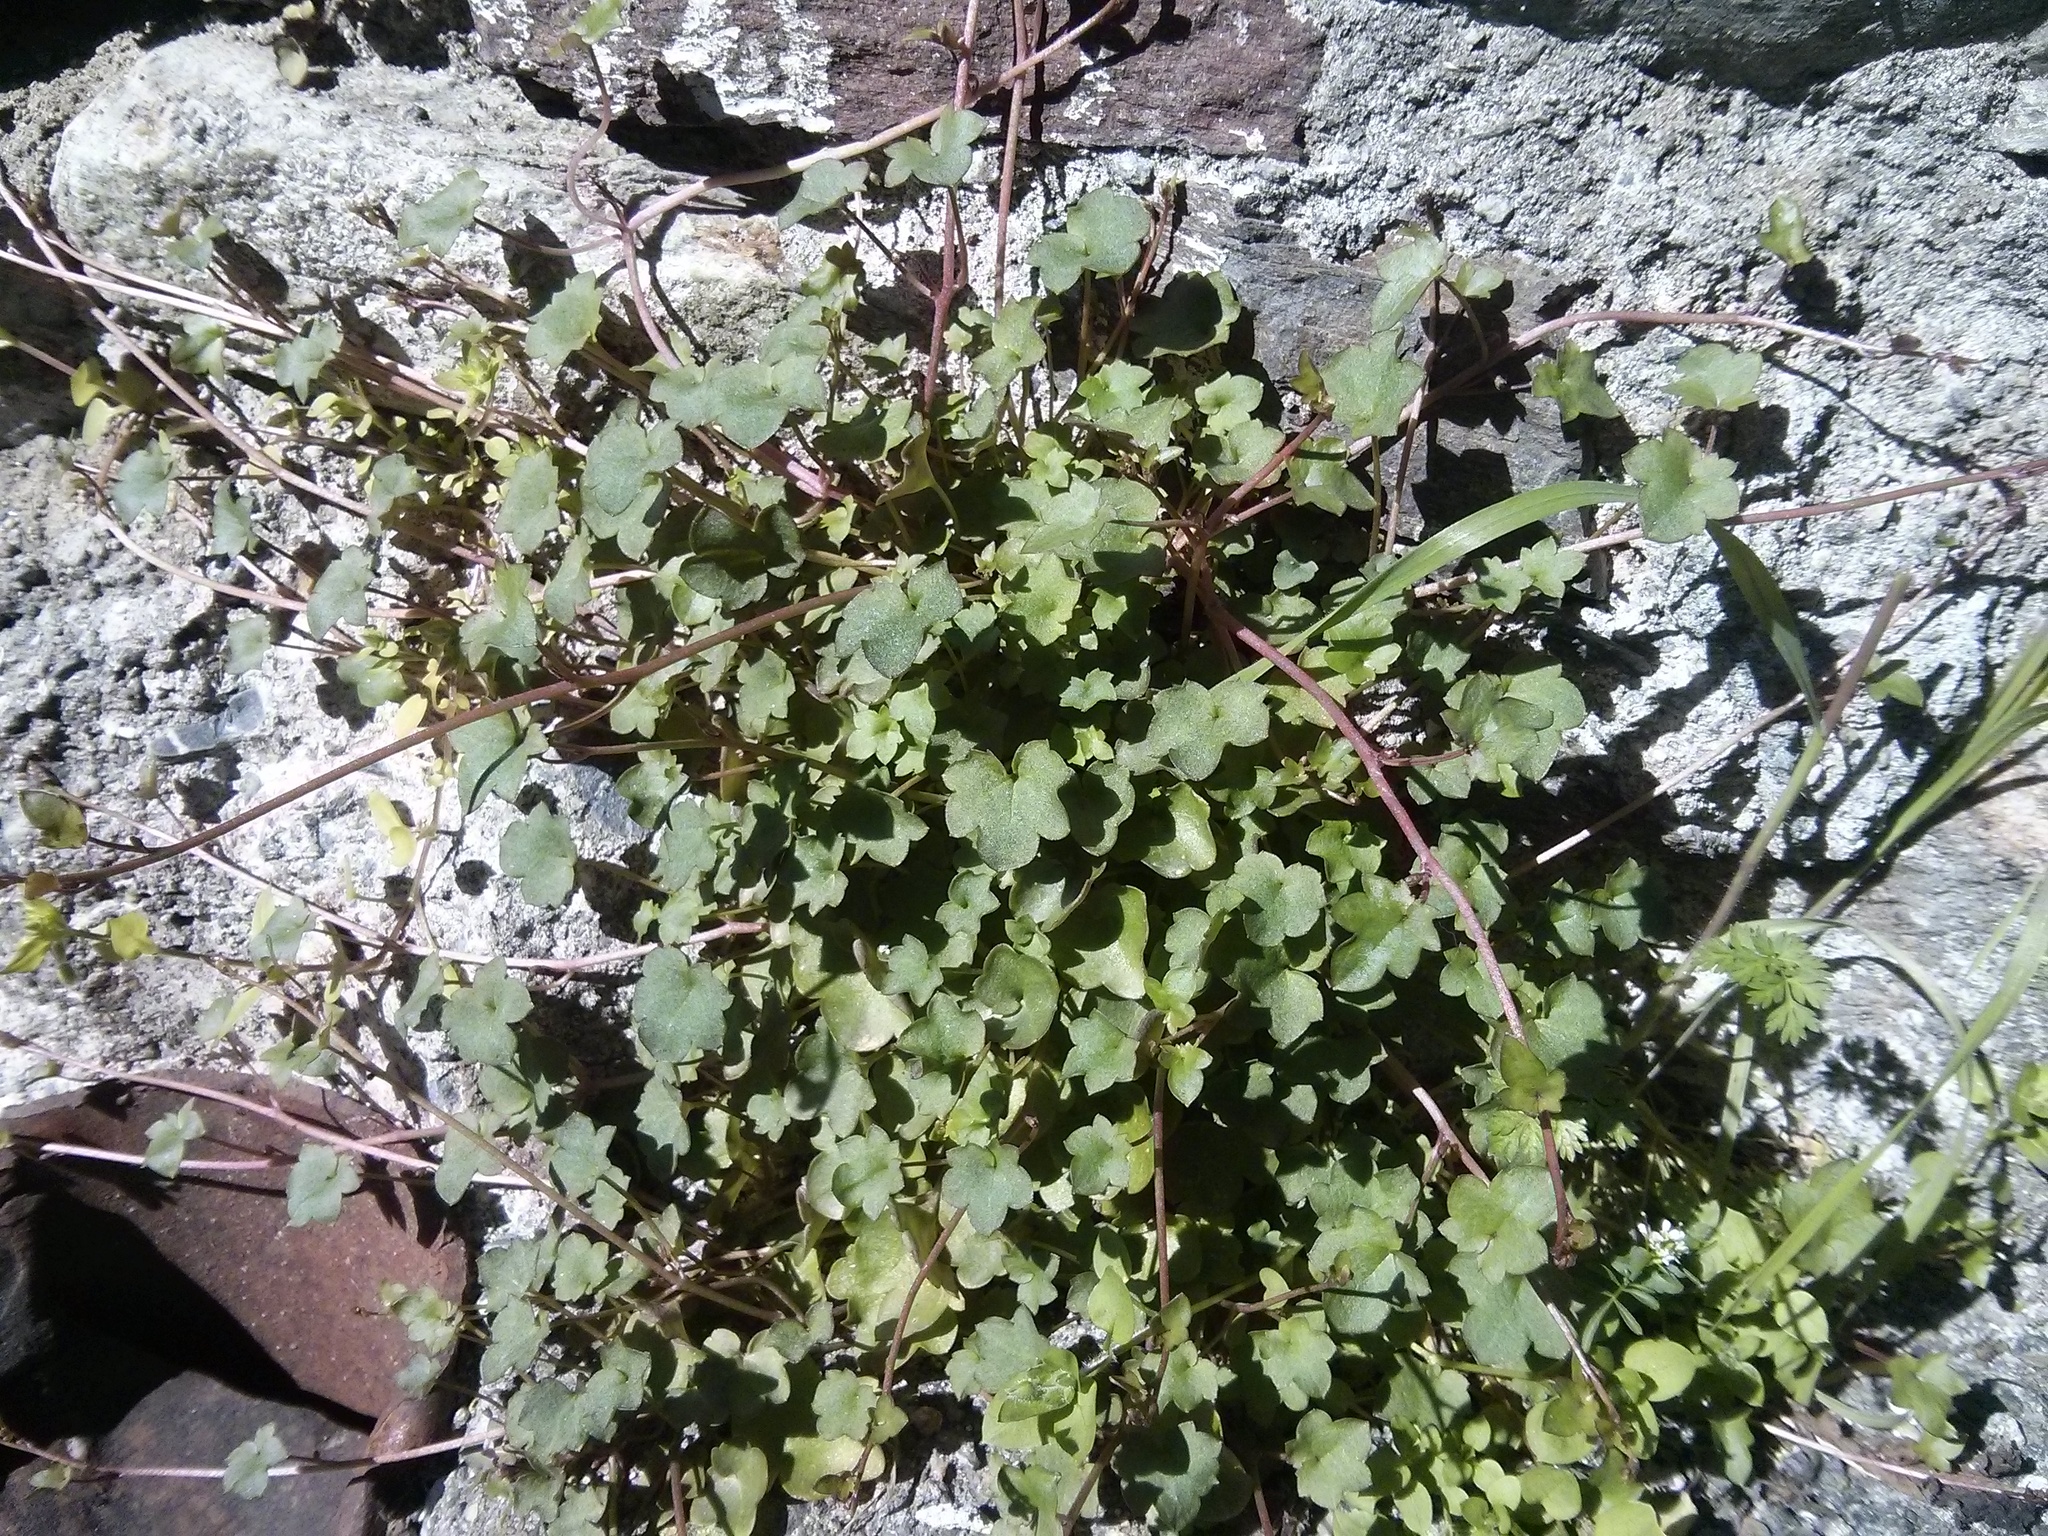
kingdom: Plantae
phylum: Tracheophyta
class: Magnoliopsida
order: Lamiales
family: Plantaginaceae
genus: Cymbalaria
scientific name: Cymbalaria muralis
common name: Ivy-leaved toadflax
